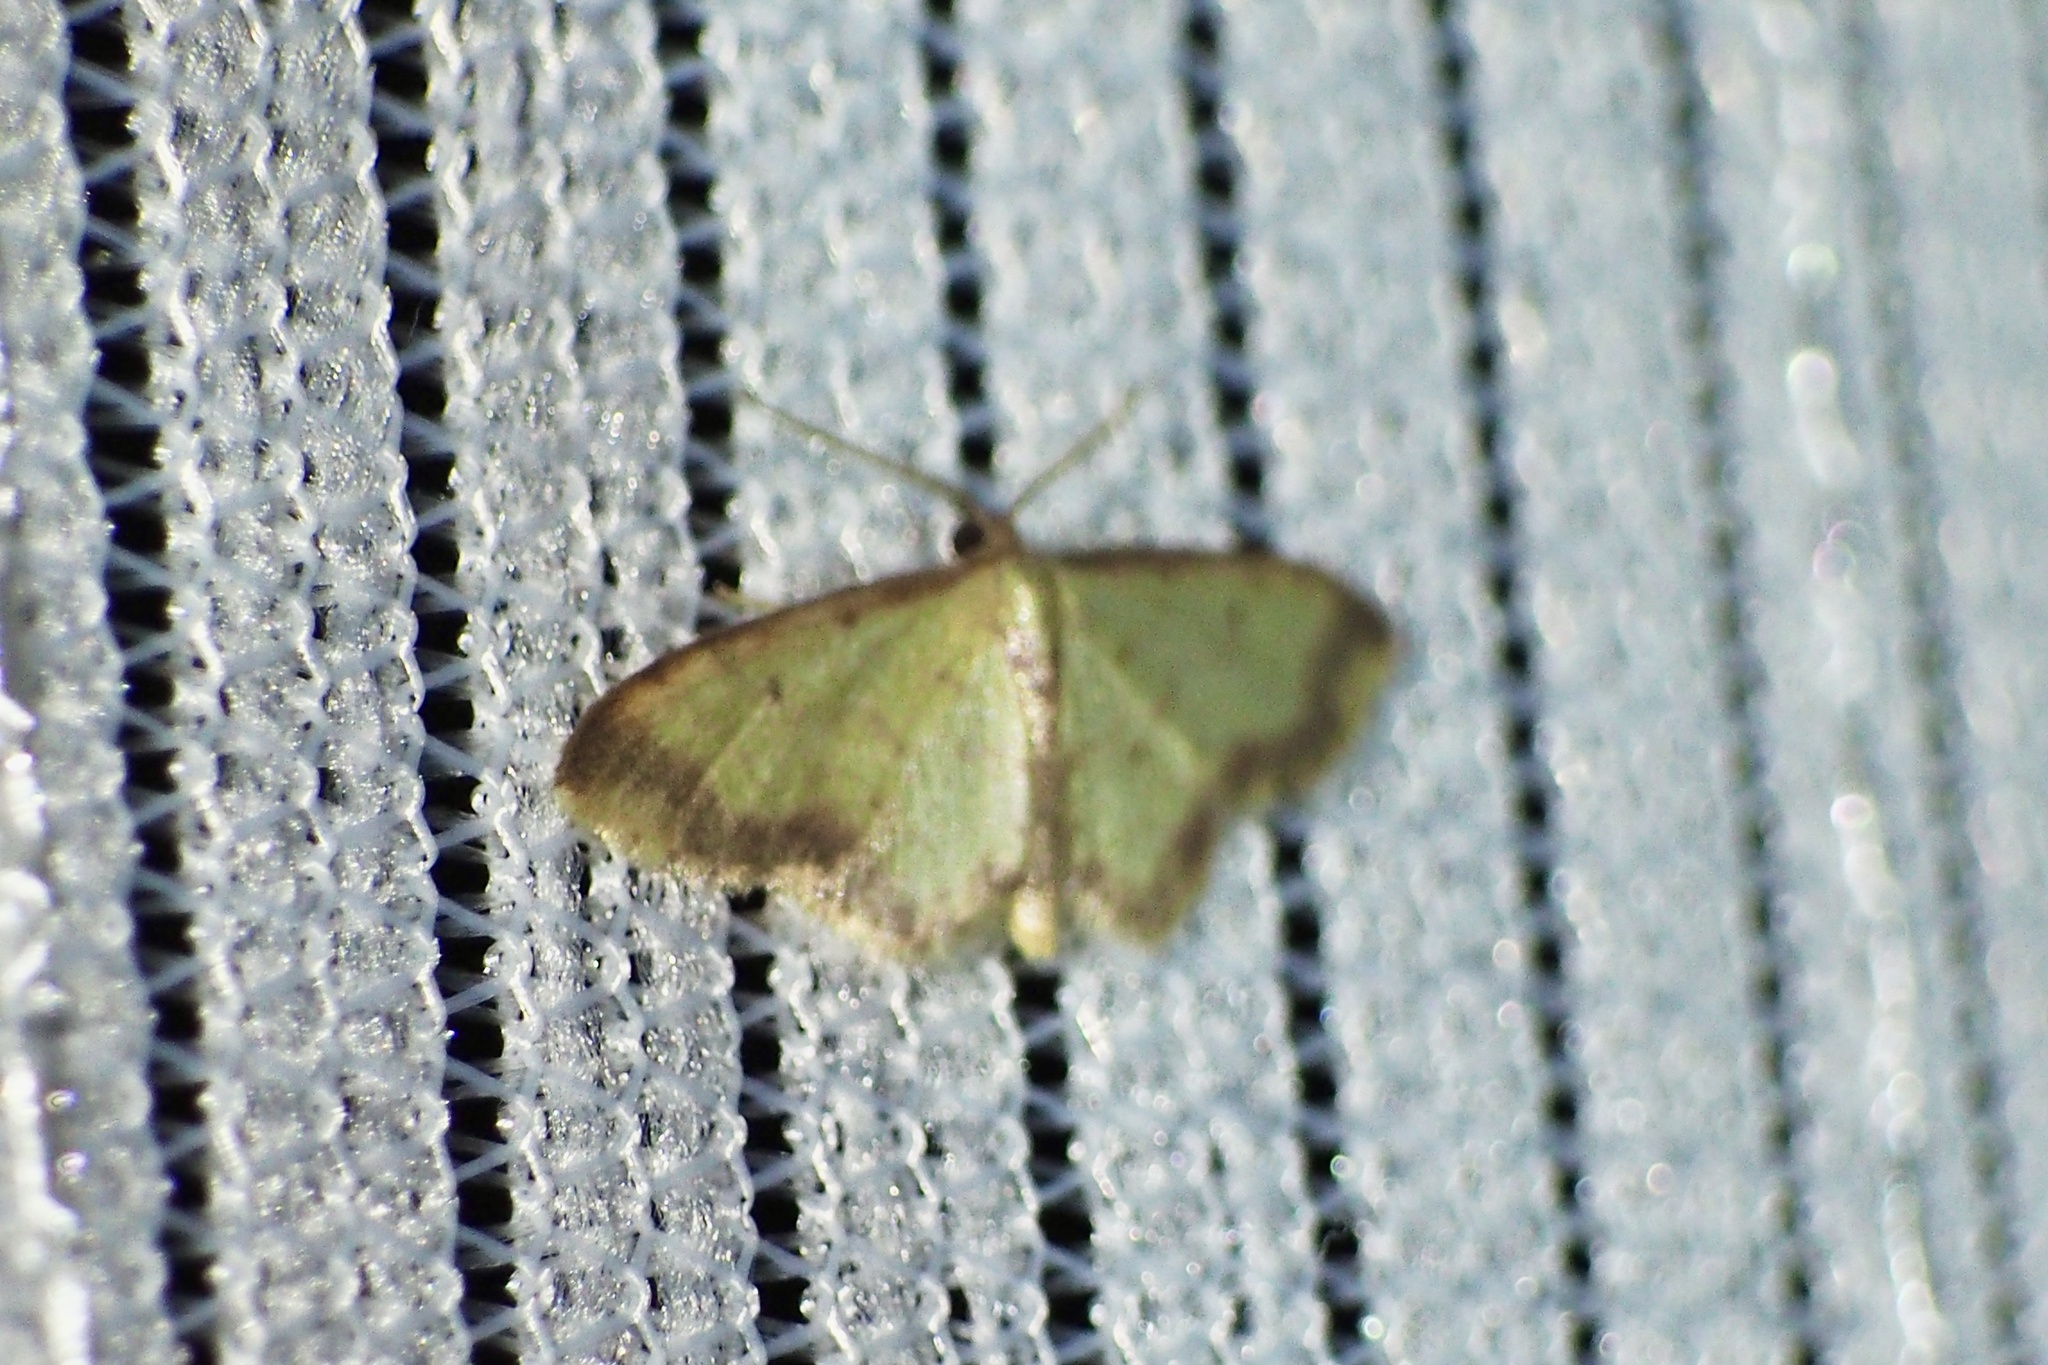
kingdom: Animalia
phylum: Arthropoda
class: Insecta
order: Lepidoptera
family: Geometridae
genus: Idaea
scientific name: Idaea impexa
